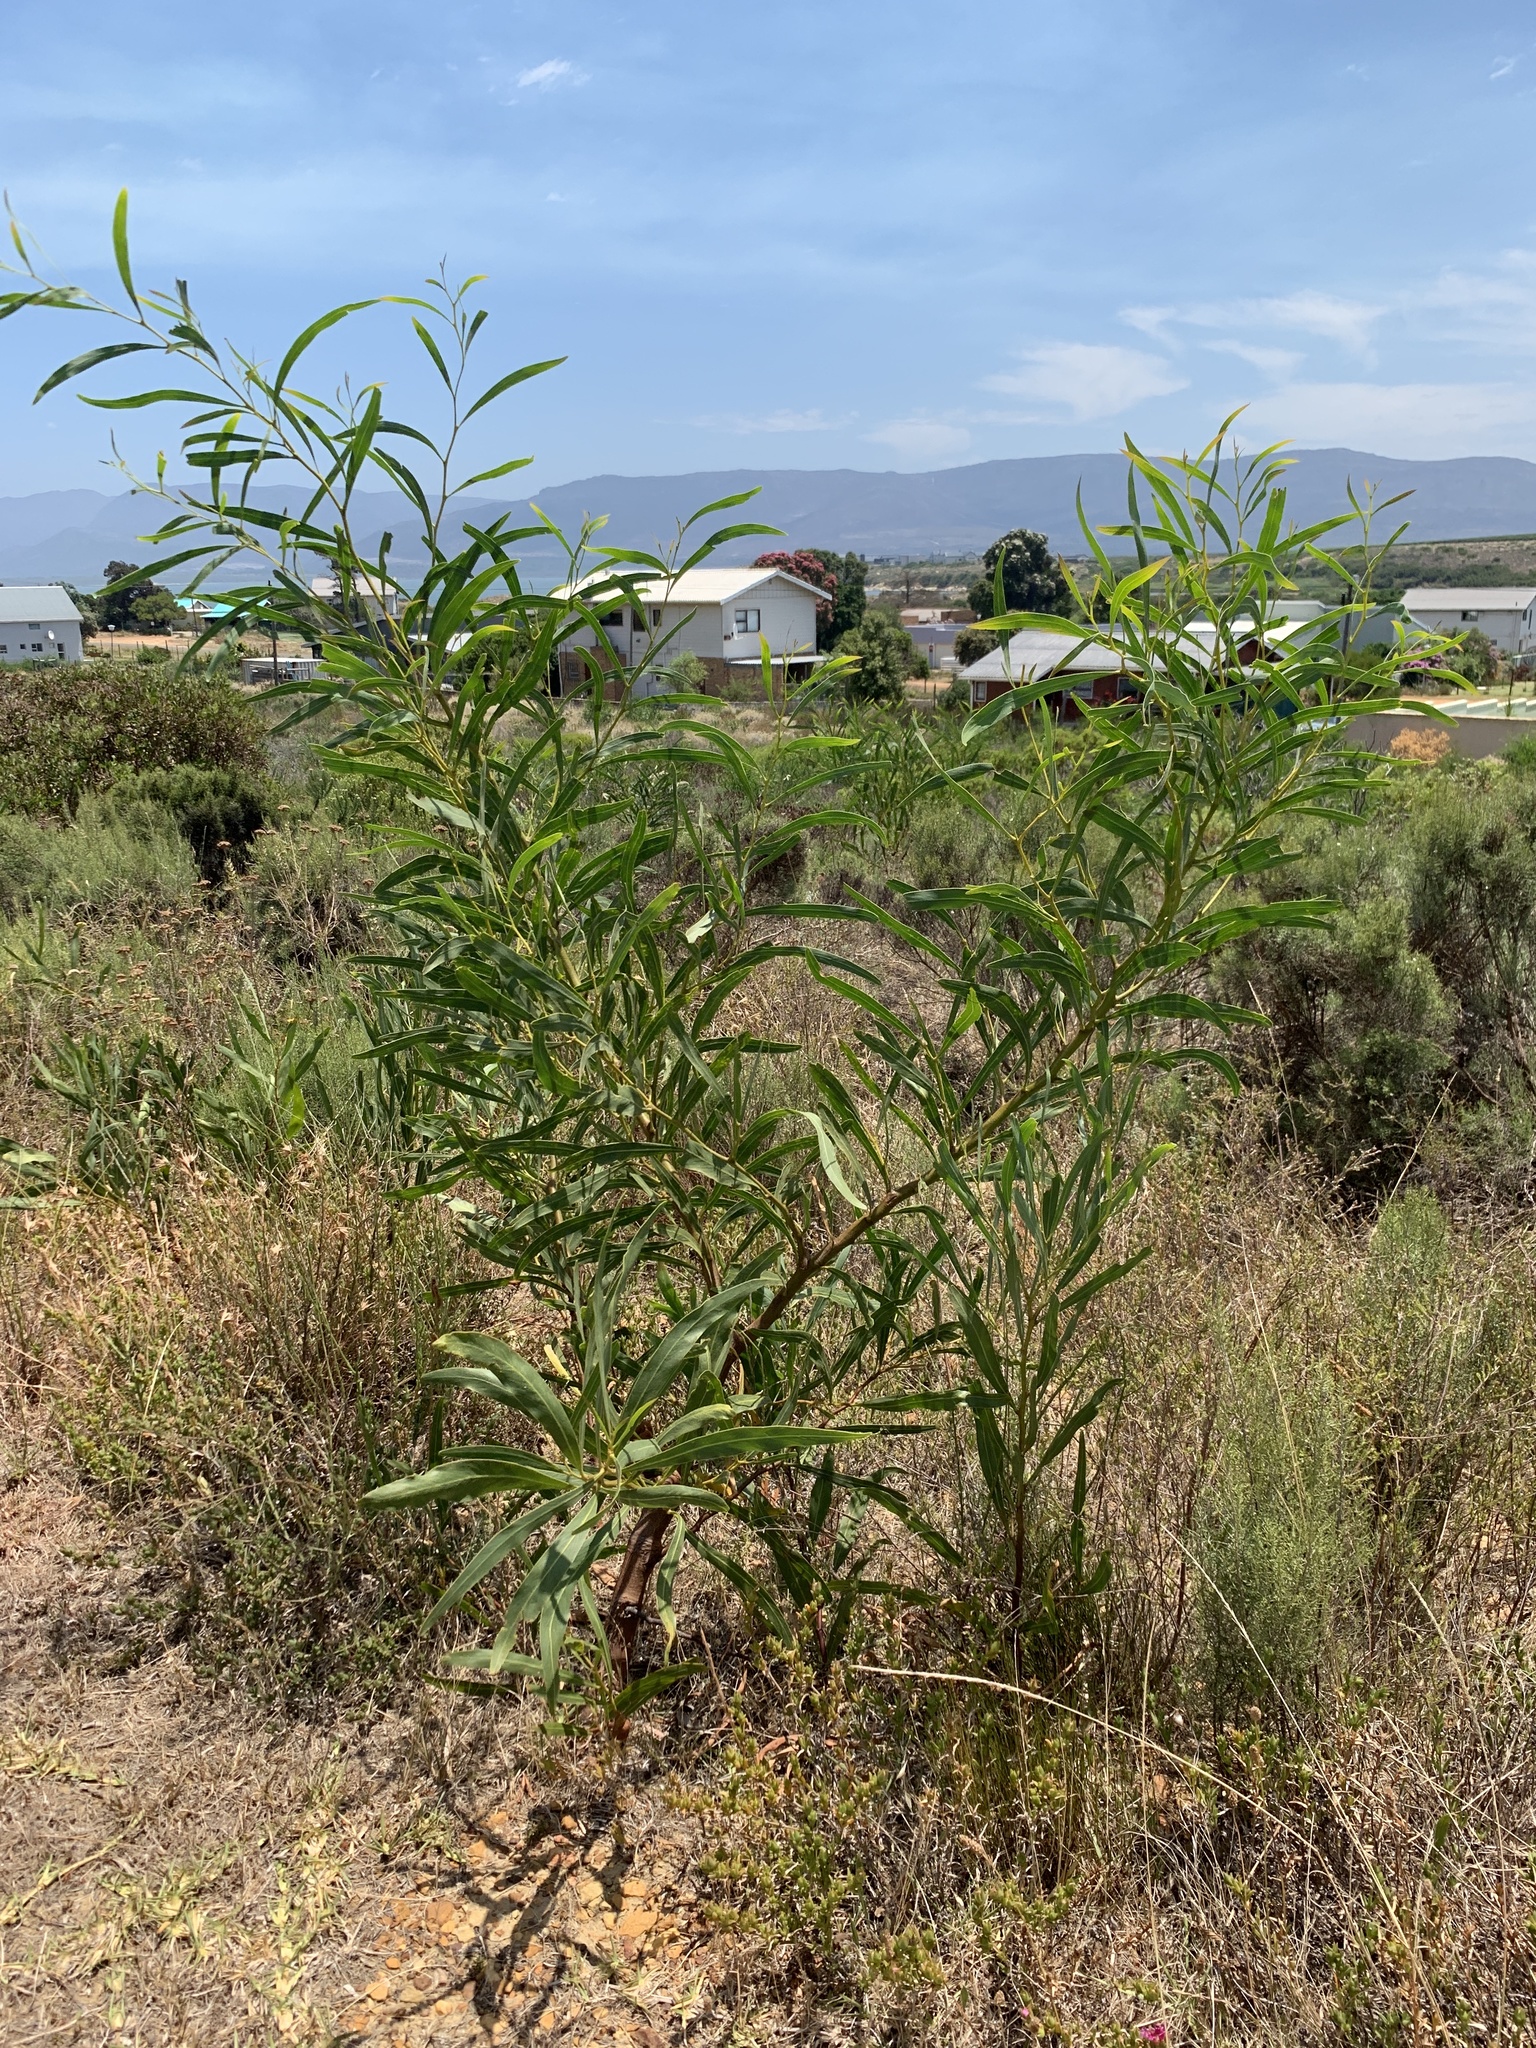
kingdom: Plantae
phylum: Tracheophyta
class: Magnoliopsida
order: Fabales
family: Fabaceae
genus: Acacia
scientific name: Acacia saligna
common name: Orange wattle
